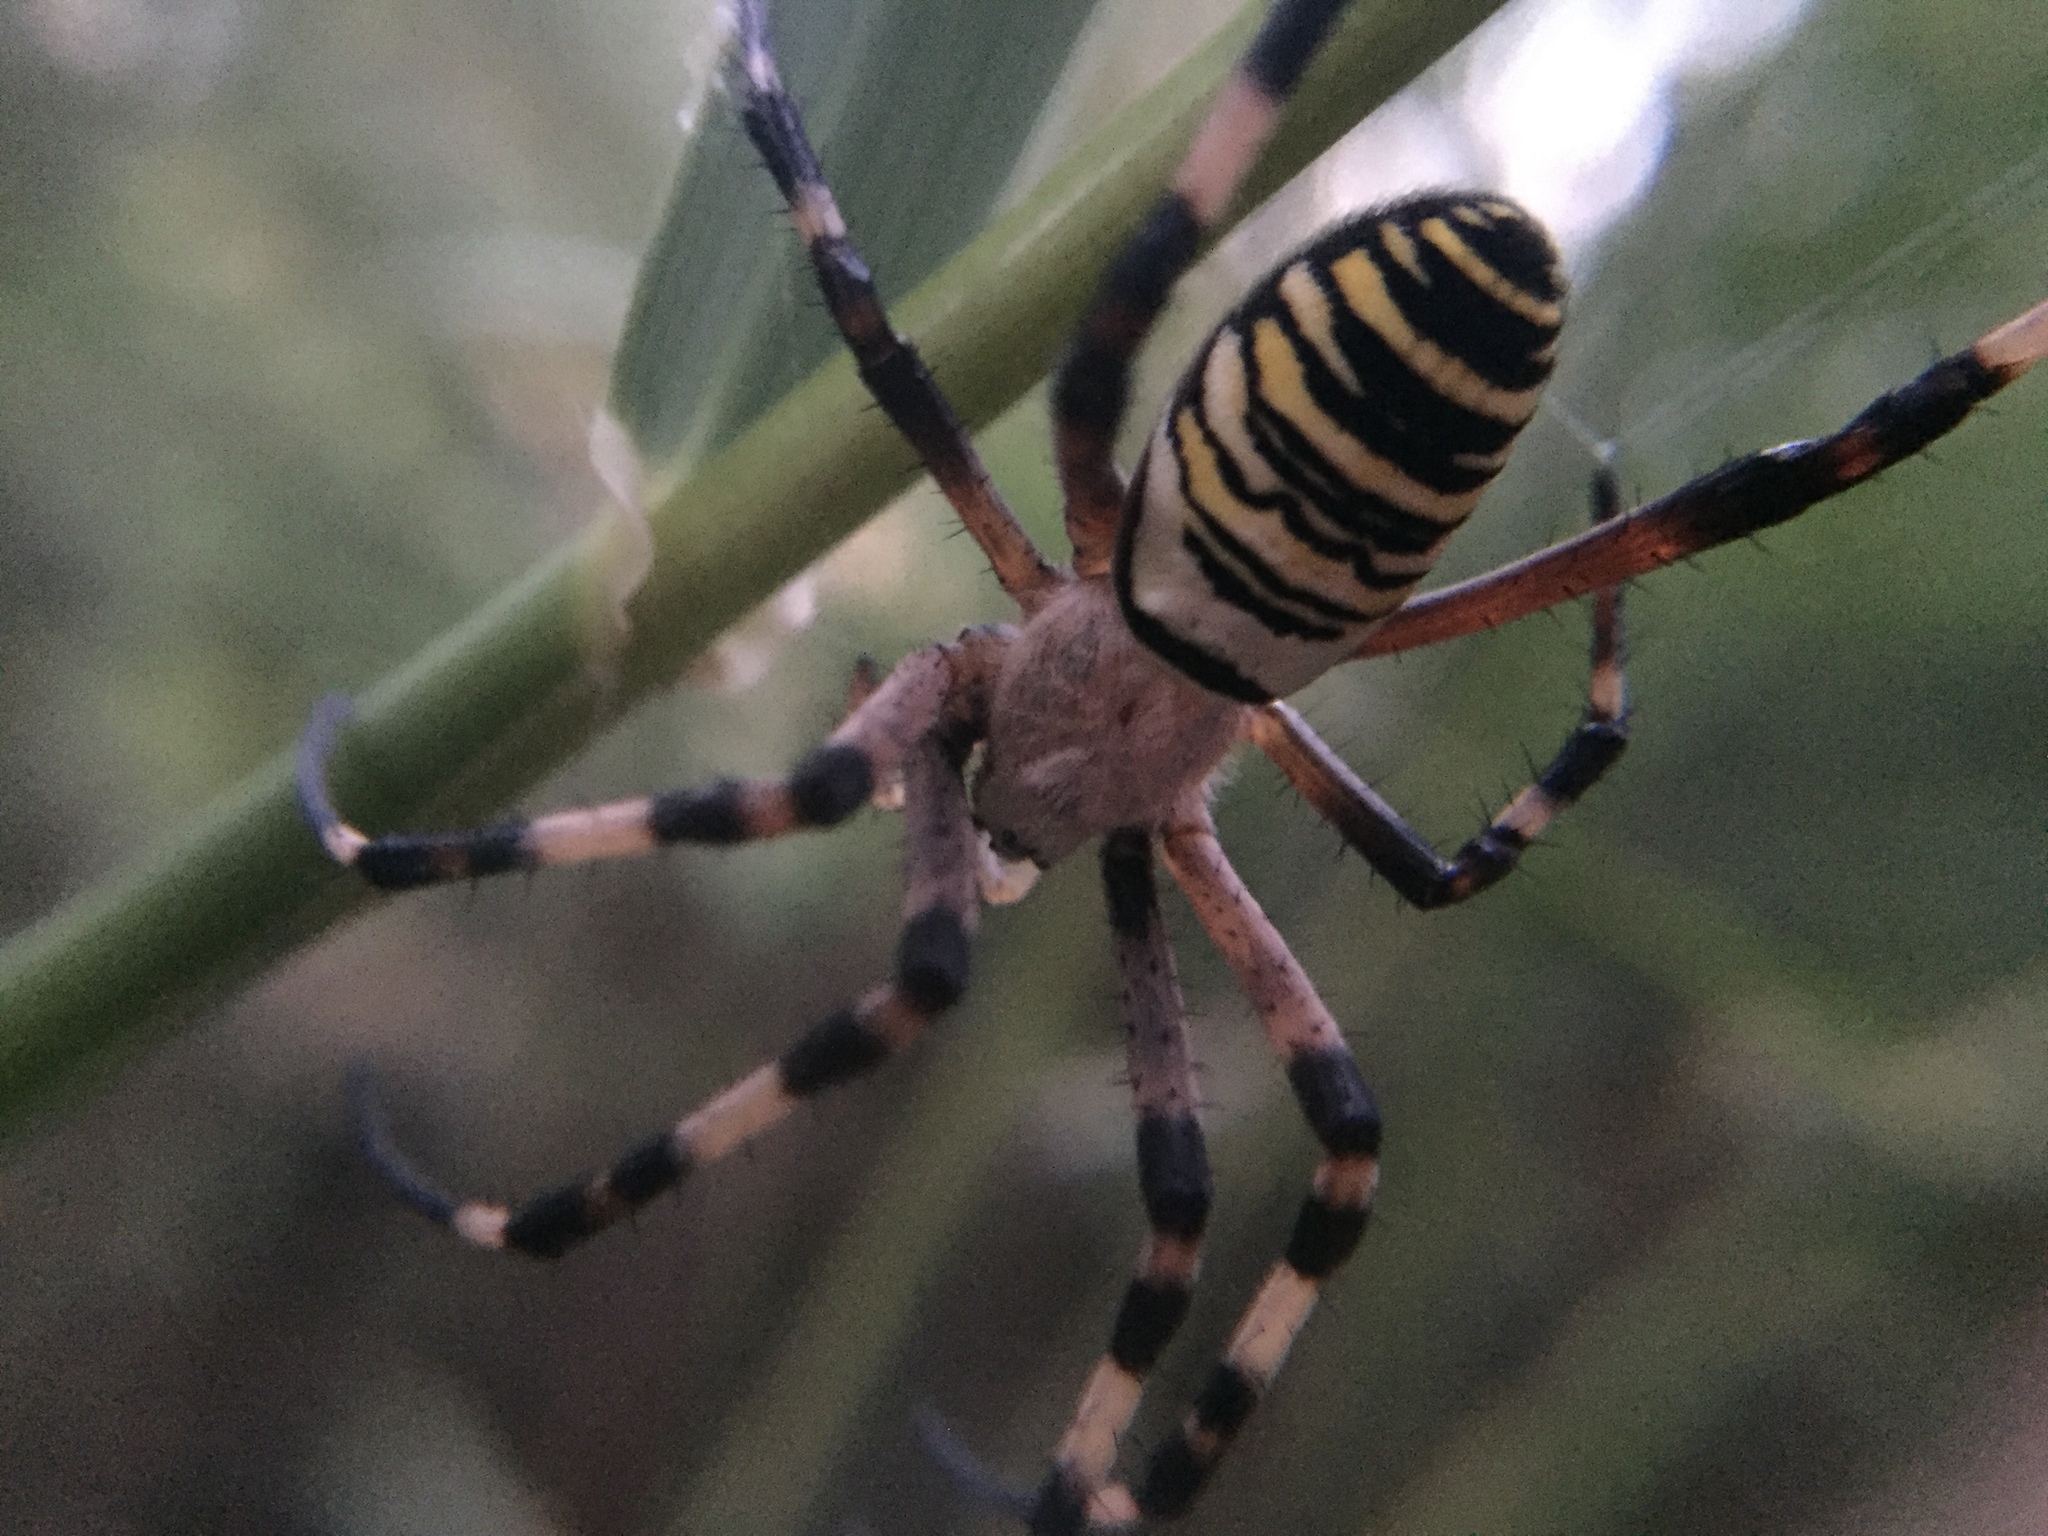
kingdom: Animalia
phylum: Arthropoda
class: Arachnida
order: Araneae
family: Araneidae
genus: Argiope
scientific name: Argiope bruennichi
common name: Wasp spider
